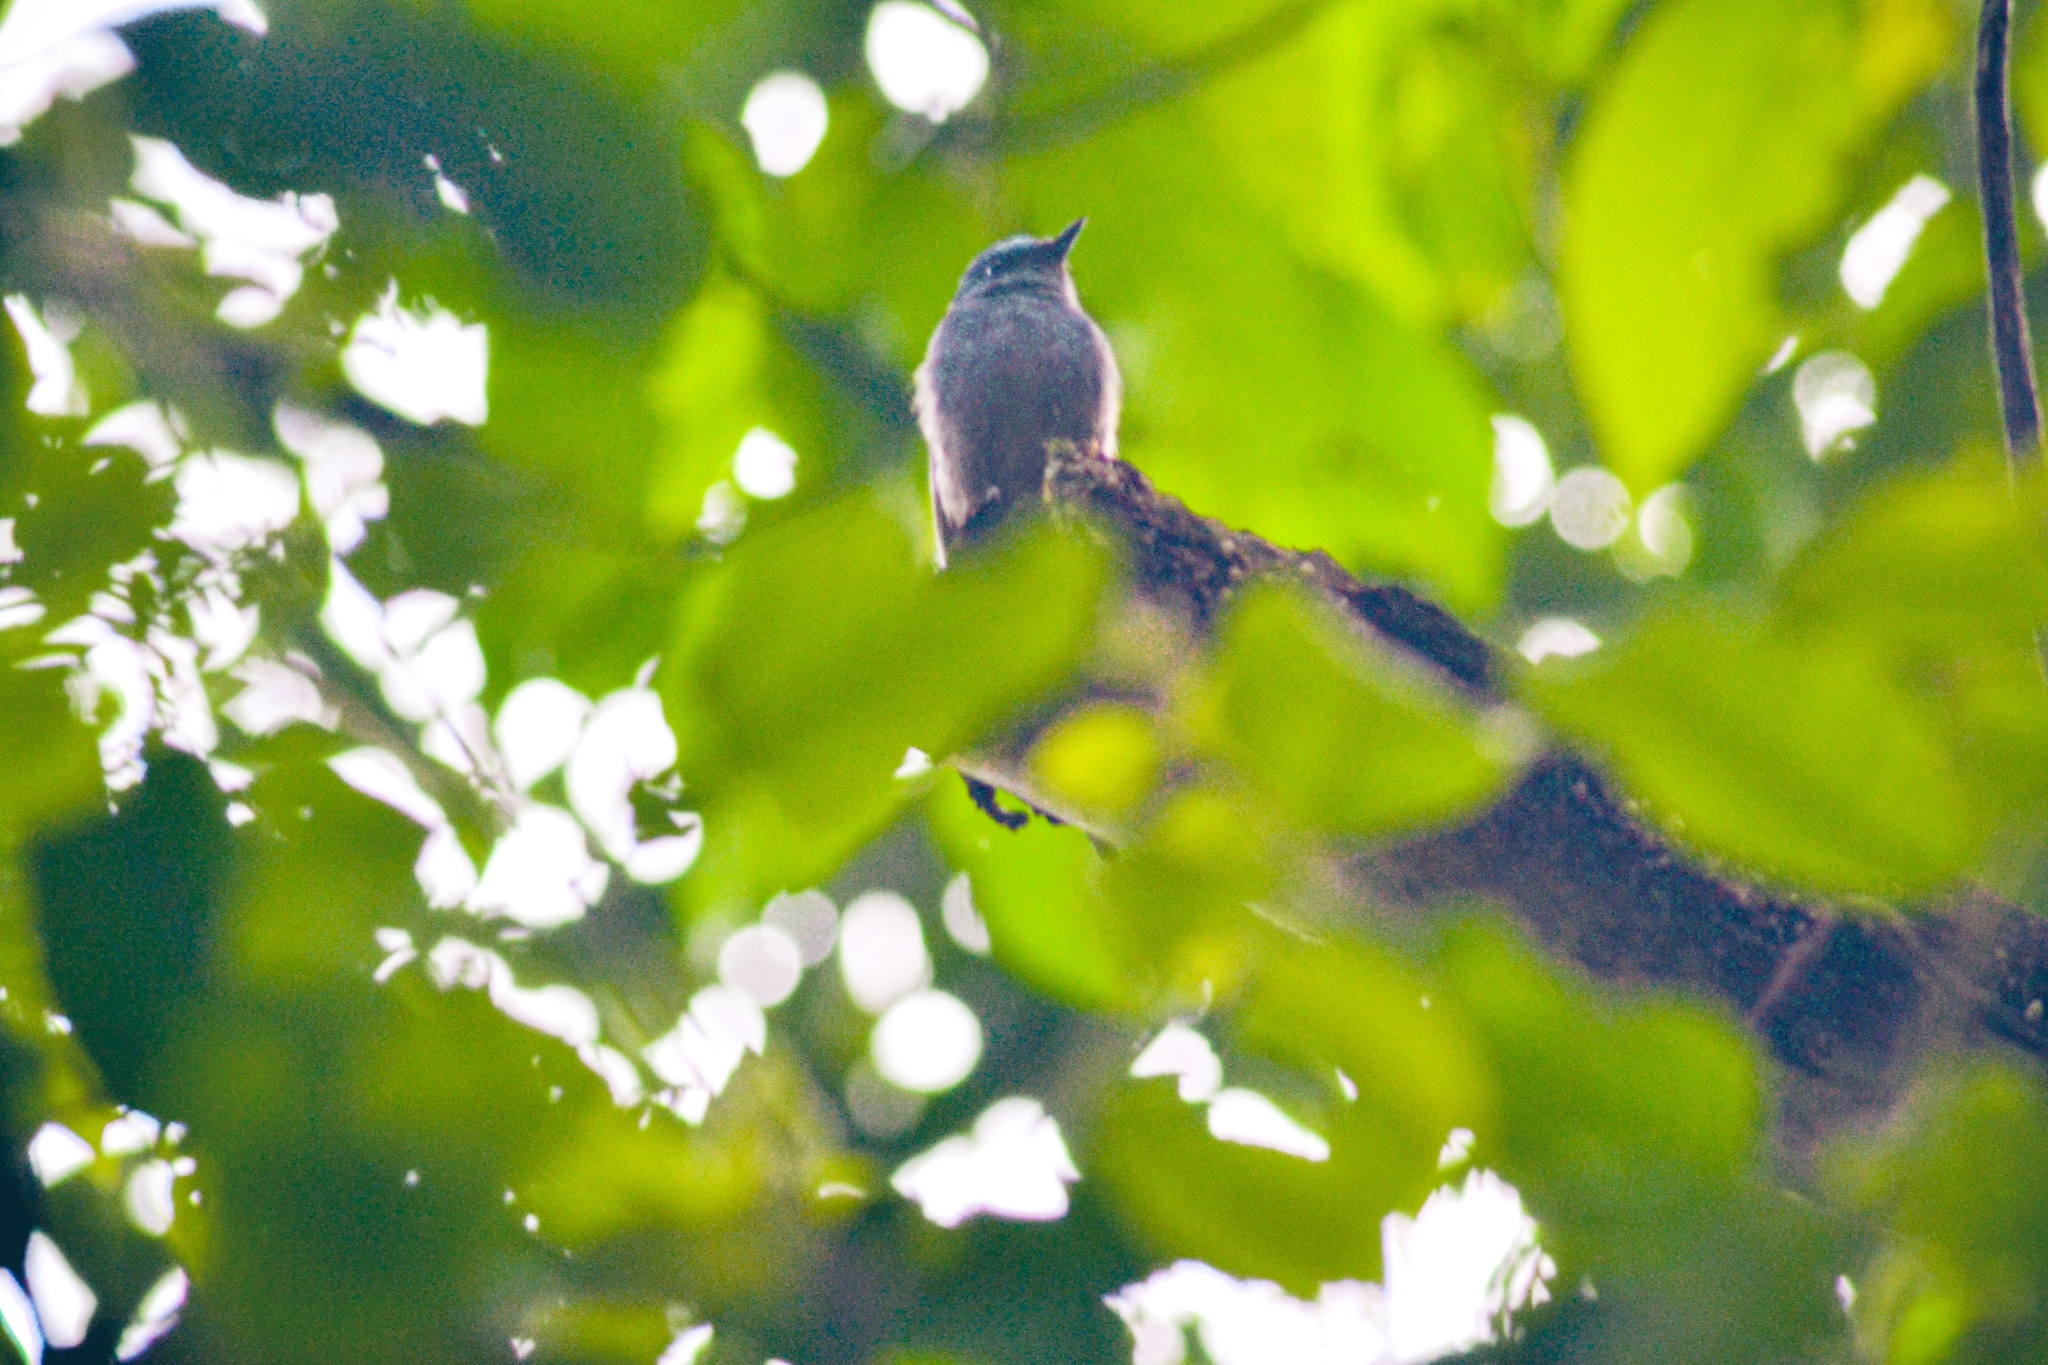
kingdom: Animalia
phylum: Chordata
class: Aves
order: Passeriformes
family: Muscicapidae
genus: Eumyias
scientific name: Eumyias indigo
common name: Indigo flycatcher
